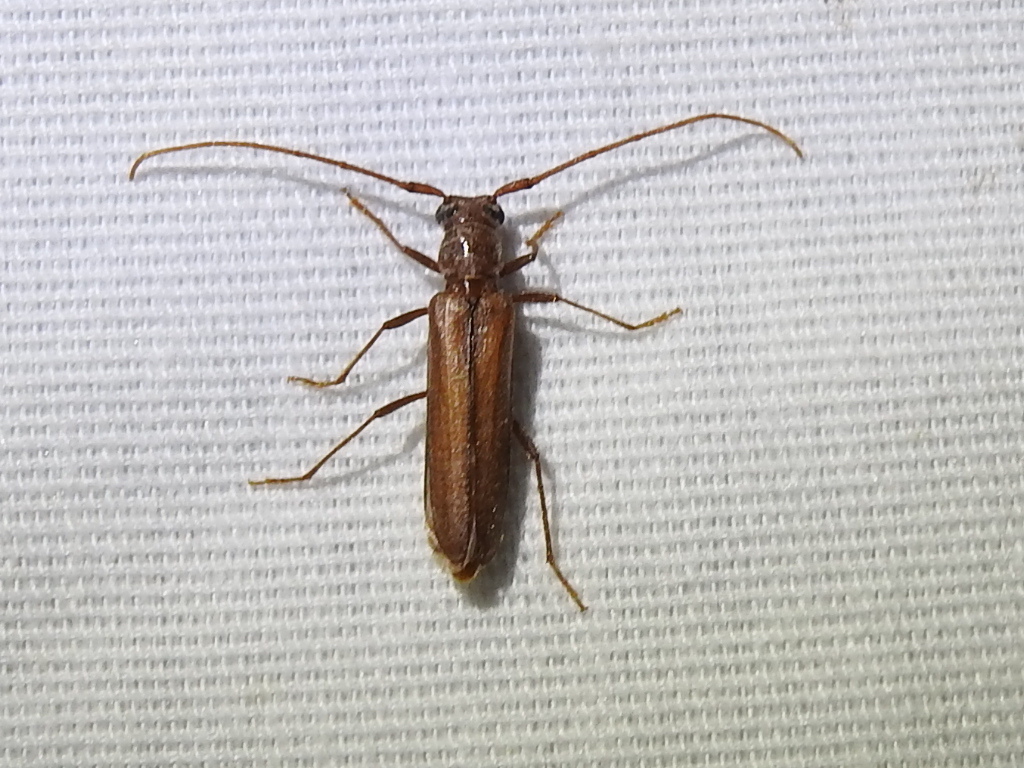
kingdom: Animalia
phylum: Arthropoda
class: Insecta
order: Coleoptera
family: Cerambycidae
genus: Oeme
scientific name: Oeme rigida
